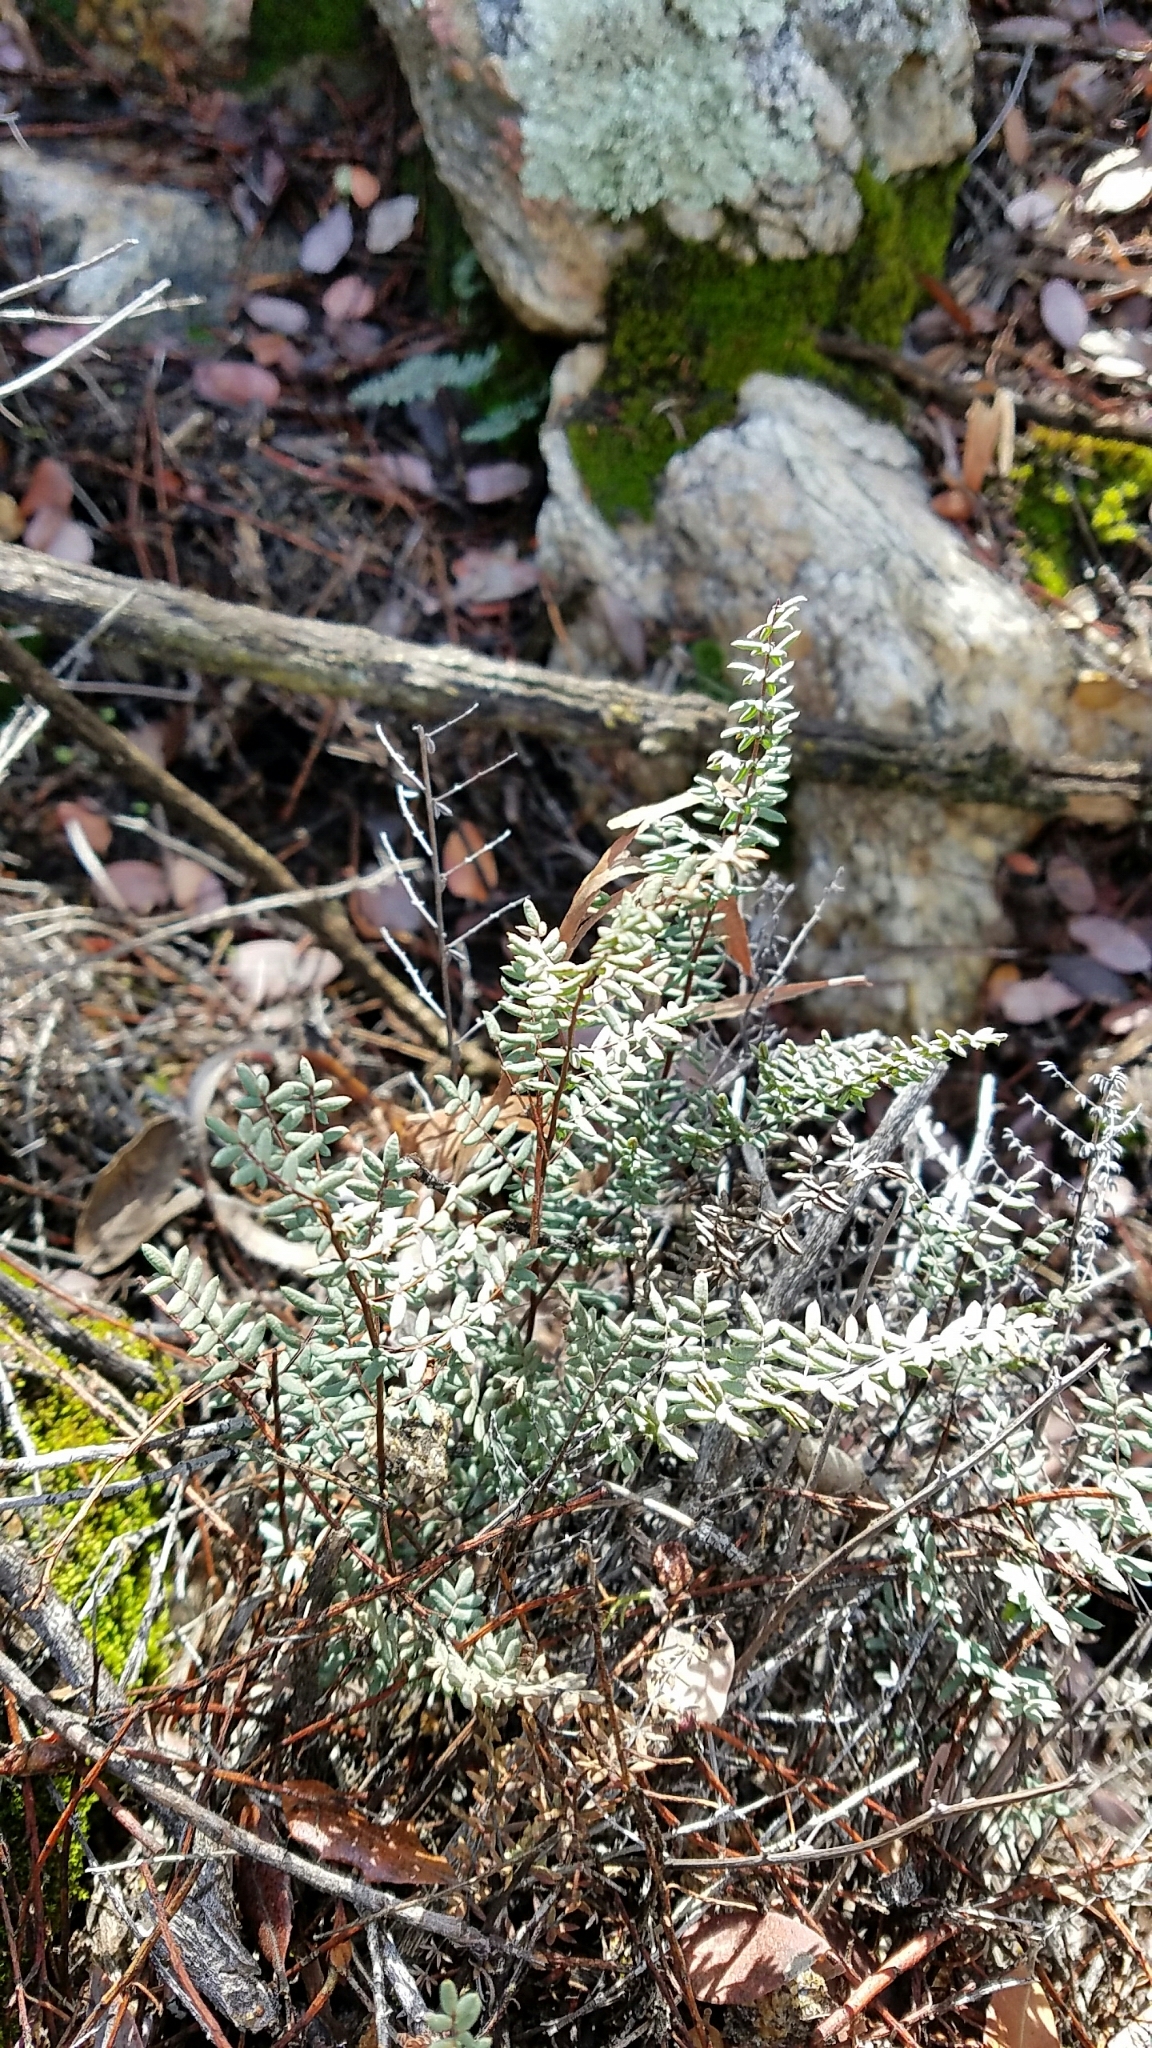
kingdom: Plantae
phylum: Tracheophyta
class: Polypodiopsida
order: Polypodiales
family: Pteridaceae
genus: Pellaea
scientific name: Pellaea mucronata
